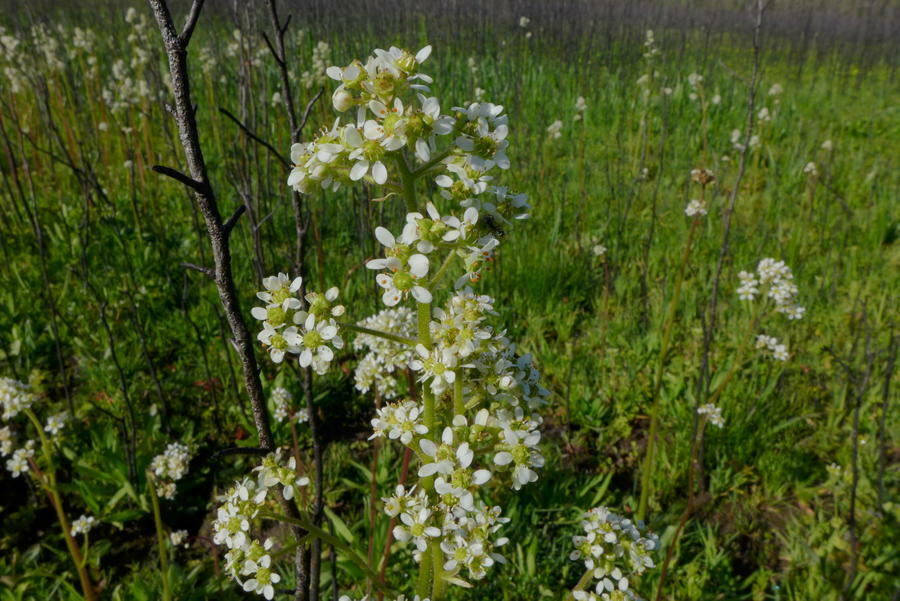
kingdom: Plantae
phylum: Tracheophyta
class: Magnoliopsida
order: Saxifragales
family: Saxifragaceae
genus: Micranthes
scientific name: Micranthes oregana
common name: Bog saxifrage
